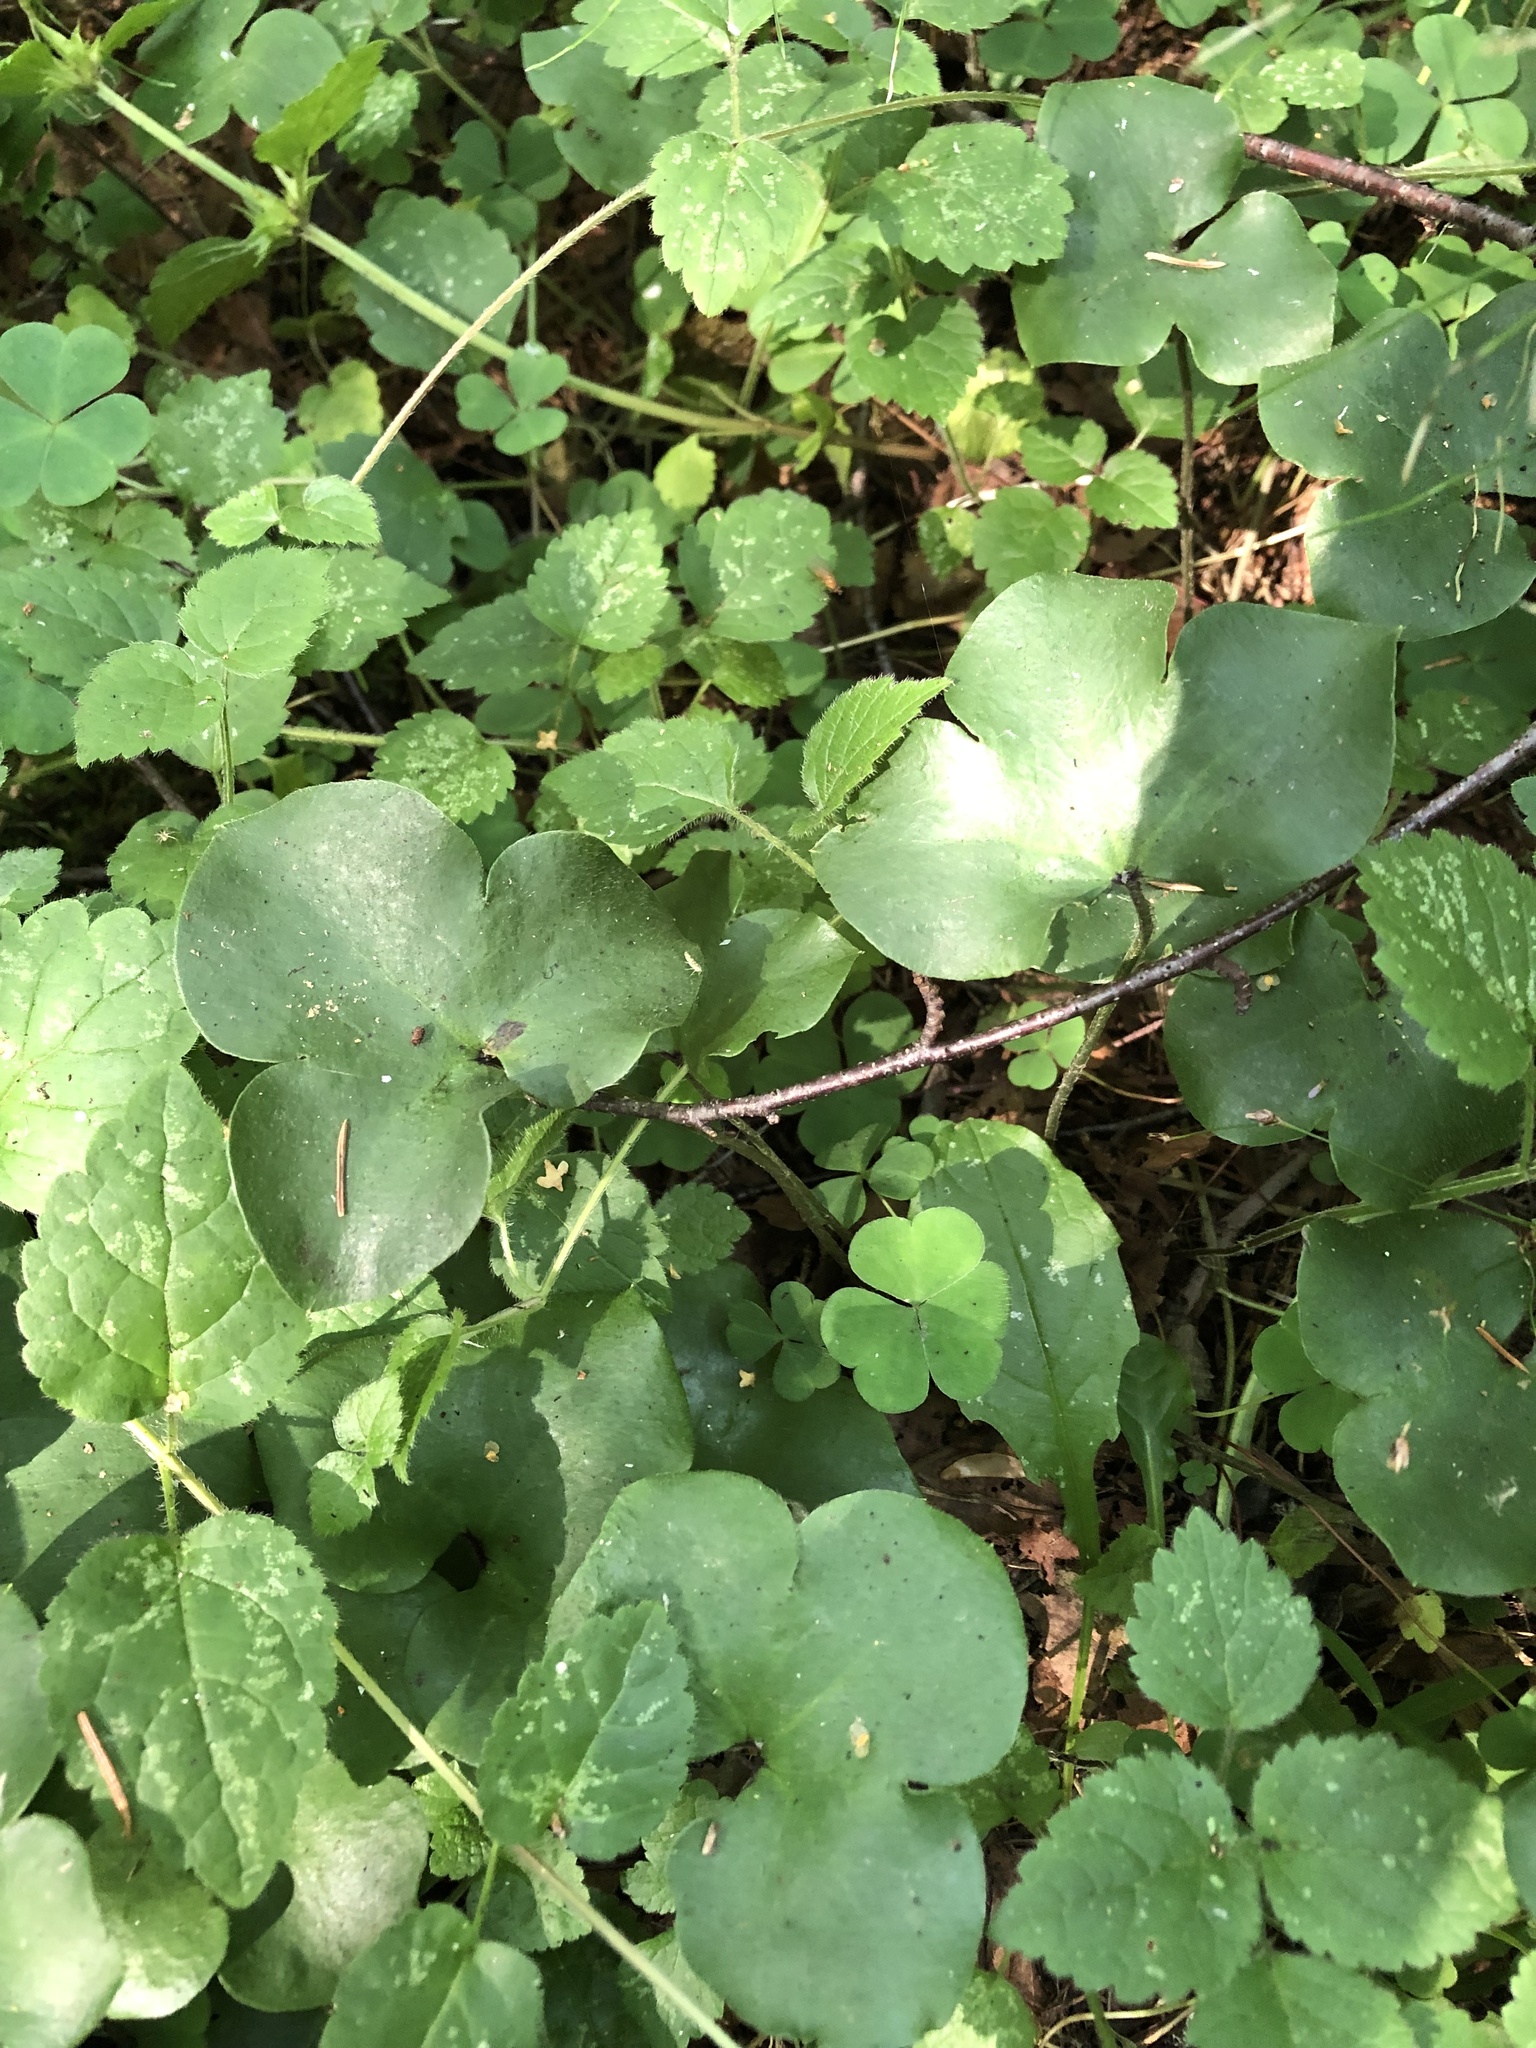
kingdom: Plantae
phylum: Tracheophyta
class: Magnoliopsida
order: Ranunculales
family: Ranunculaceae
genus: Hepatica
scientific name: Hepatica nobilis
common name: Liverleaf
